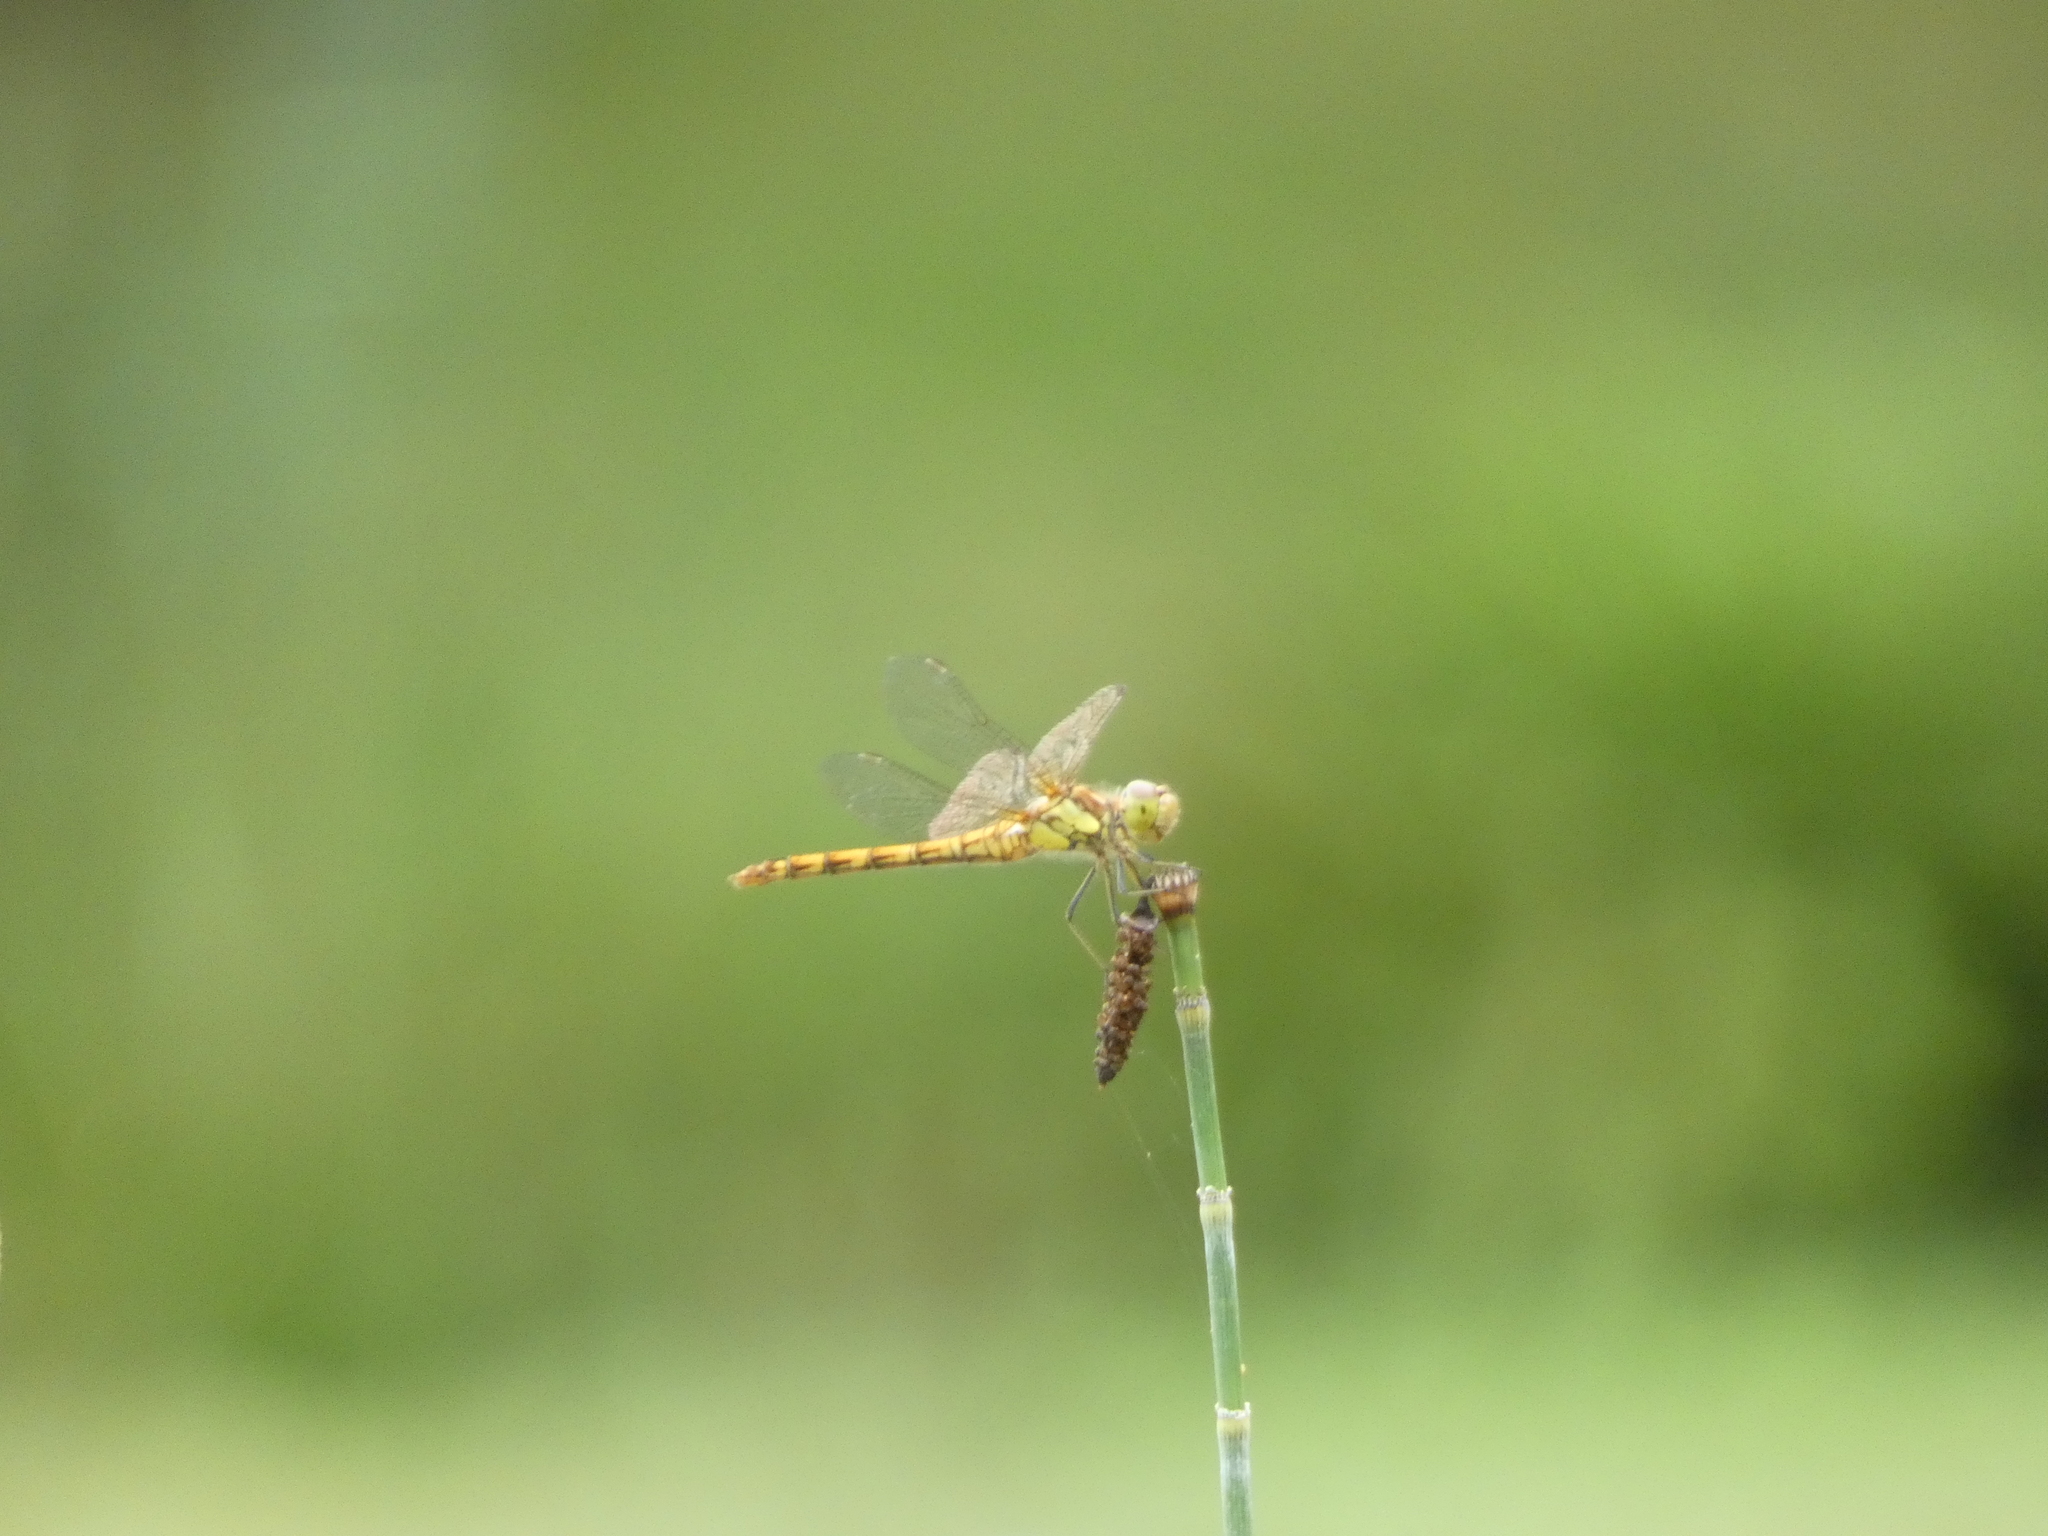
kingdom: Animalia
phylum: Arthropoda
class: Insecta
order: Odonata
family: Libellulidae
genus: Sympetrum
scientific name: Sympetrum striolatum
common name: Common darter
